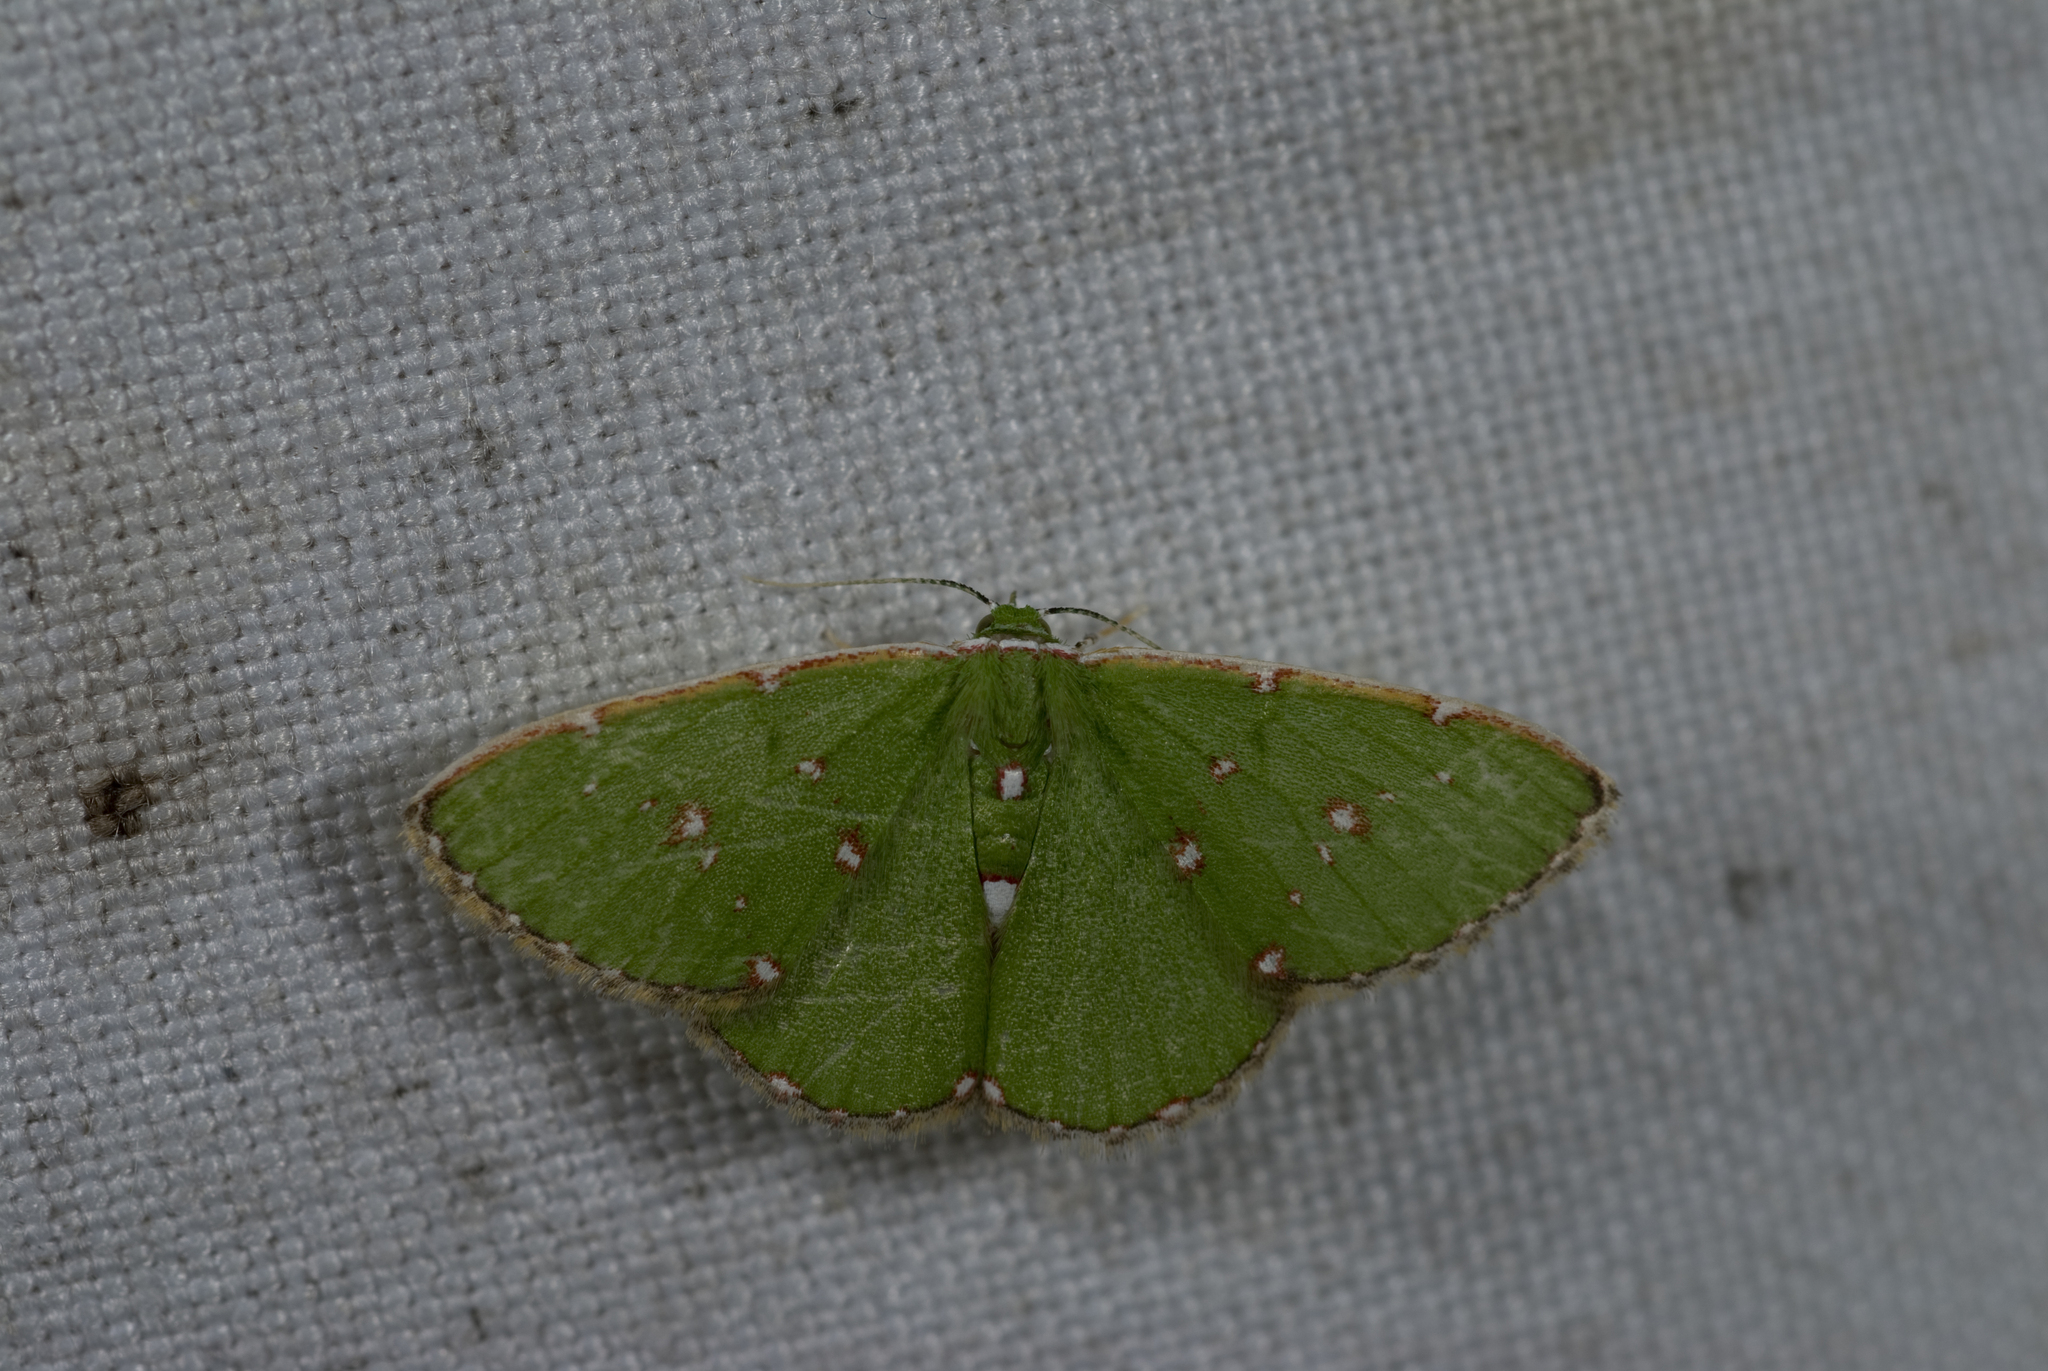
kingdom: Animalia
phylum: Arthropoda
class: Insecta
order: Lepidoptera
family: Geometridae
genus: Argyrocosma
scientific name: Argyrocosma inductaria
